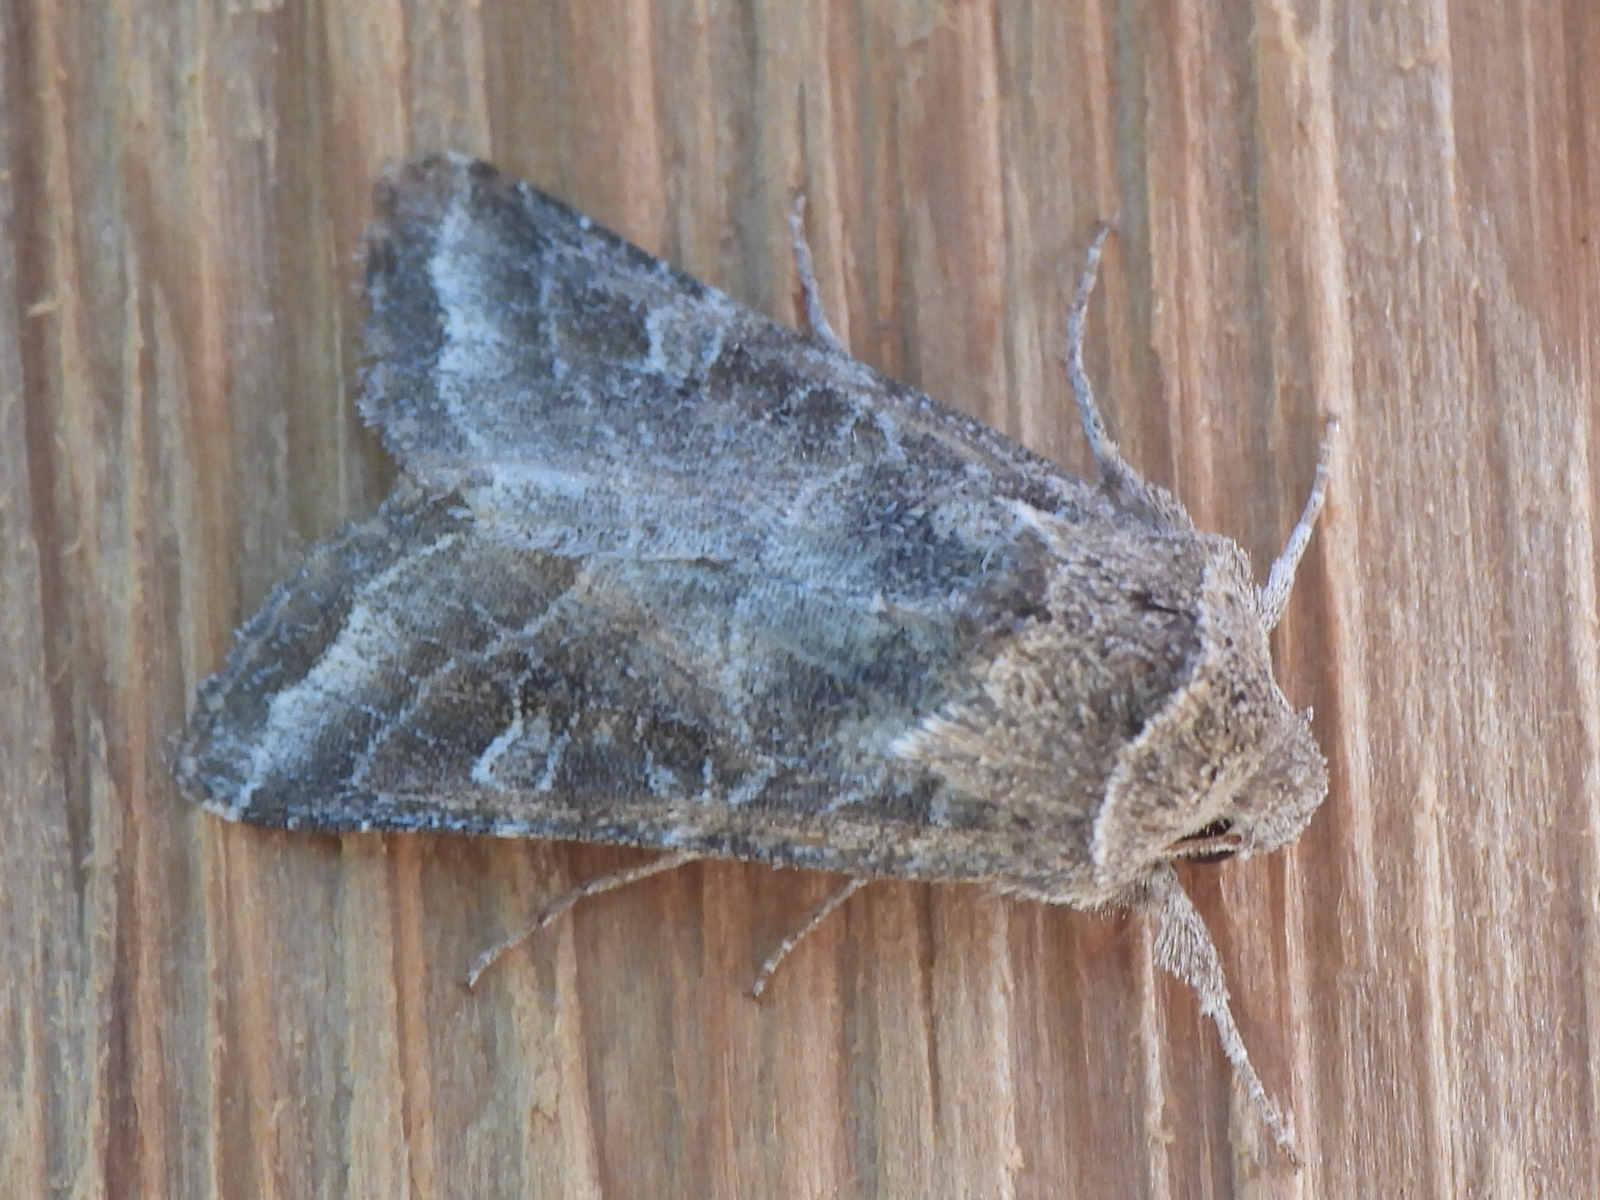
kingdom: Animalia
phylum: Arthropoda
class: Insecta
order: Lepidoptera
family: Noctuidae
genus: Lacinipolia
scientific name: Lacinipolia erecta
